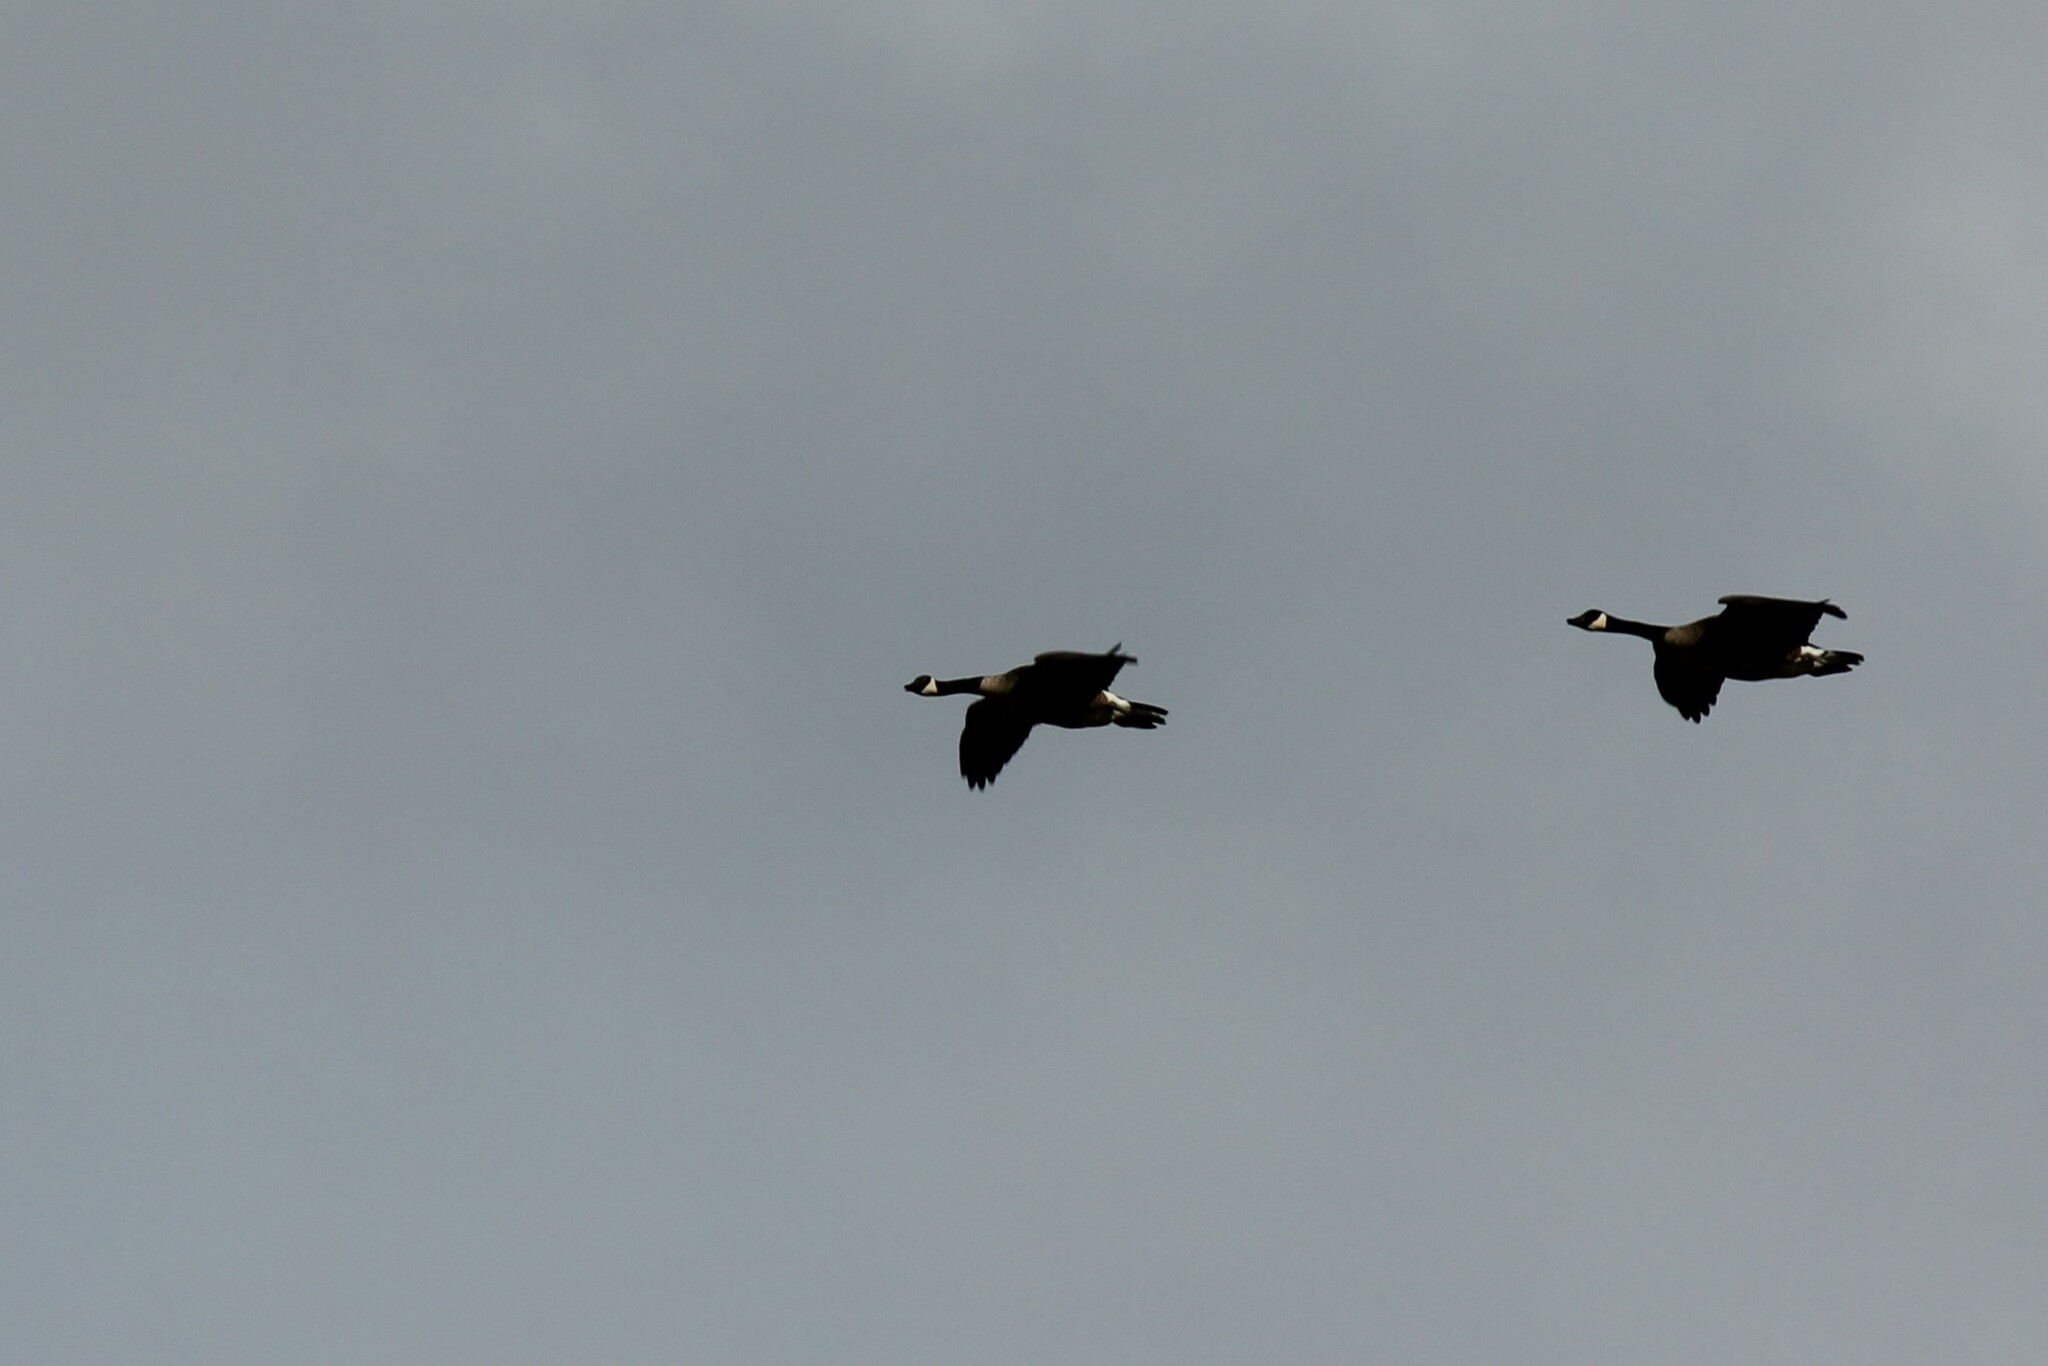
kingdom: Animalia
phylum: Chordata
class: Aves
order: Anseriformes
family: Anatidae
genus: Branta
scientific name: Branta canadensis
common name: Canada goose
